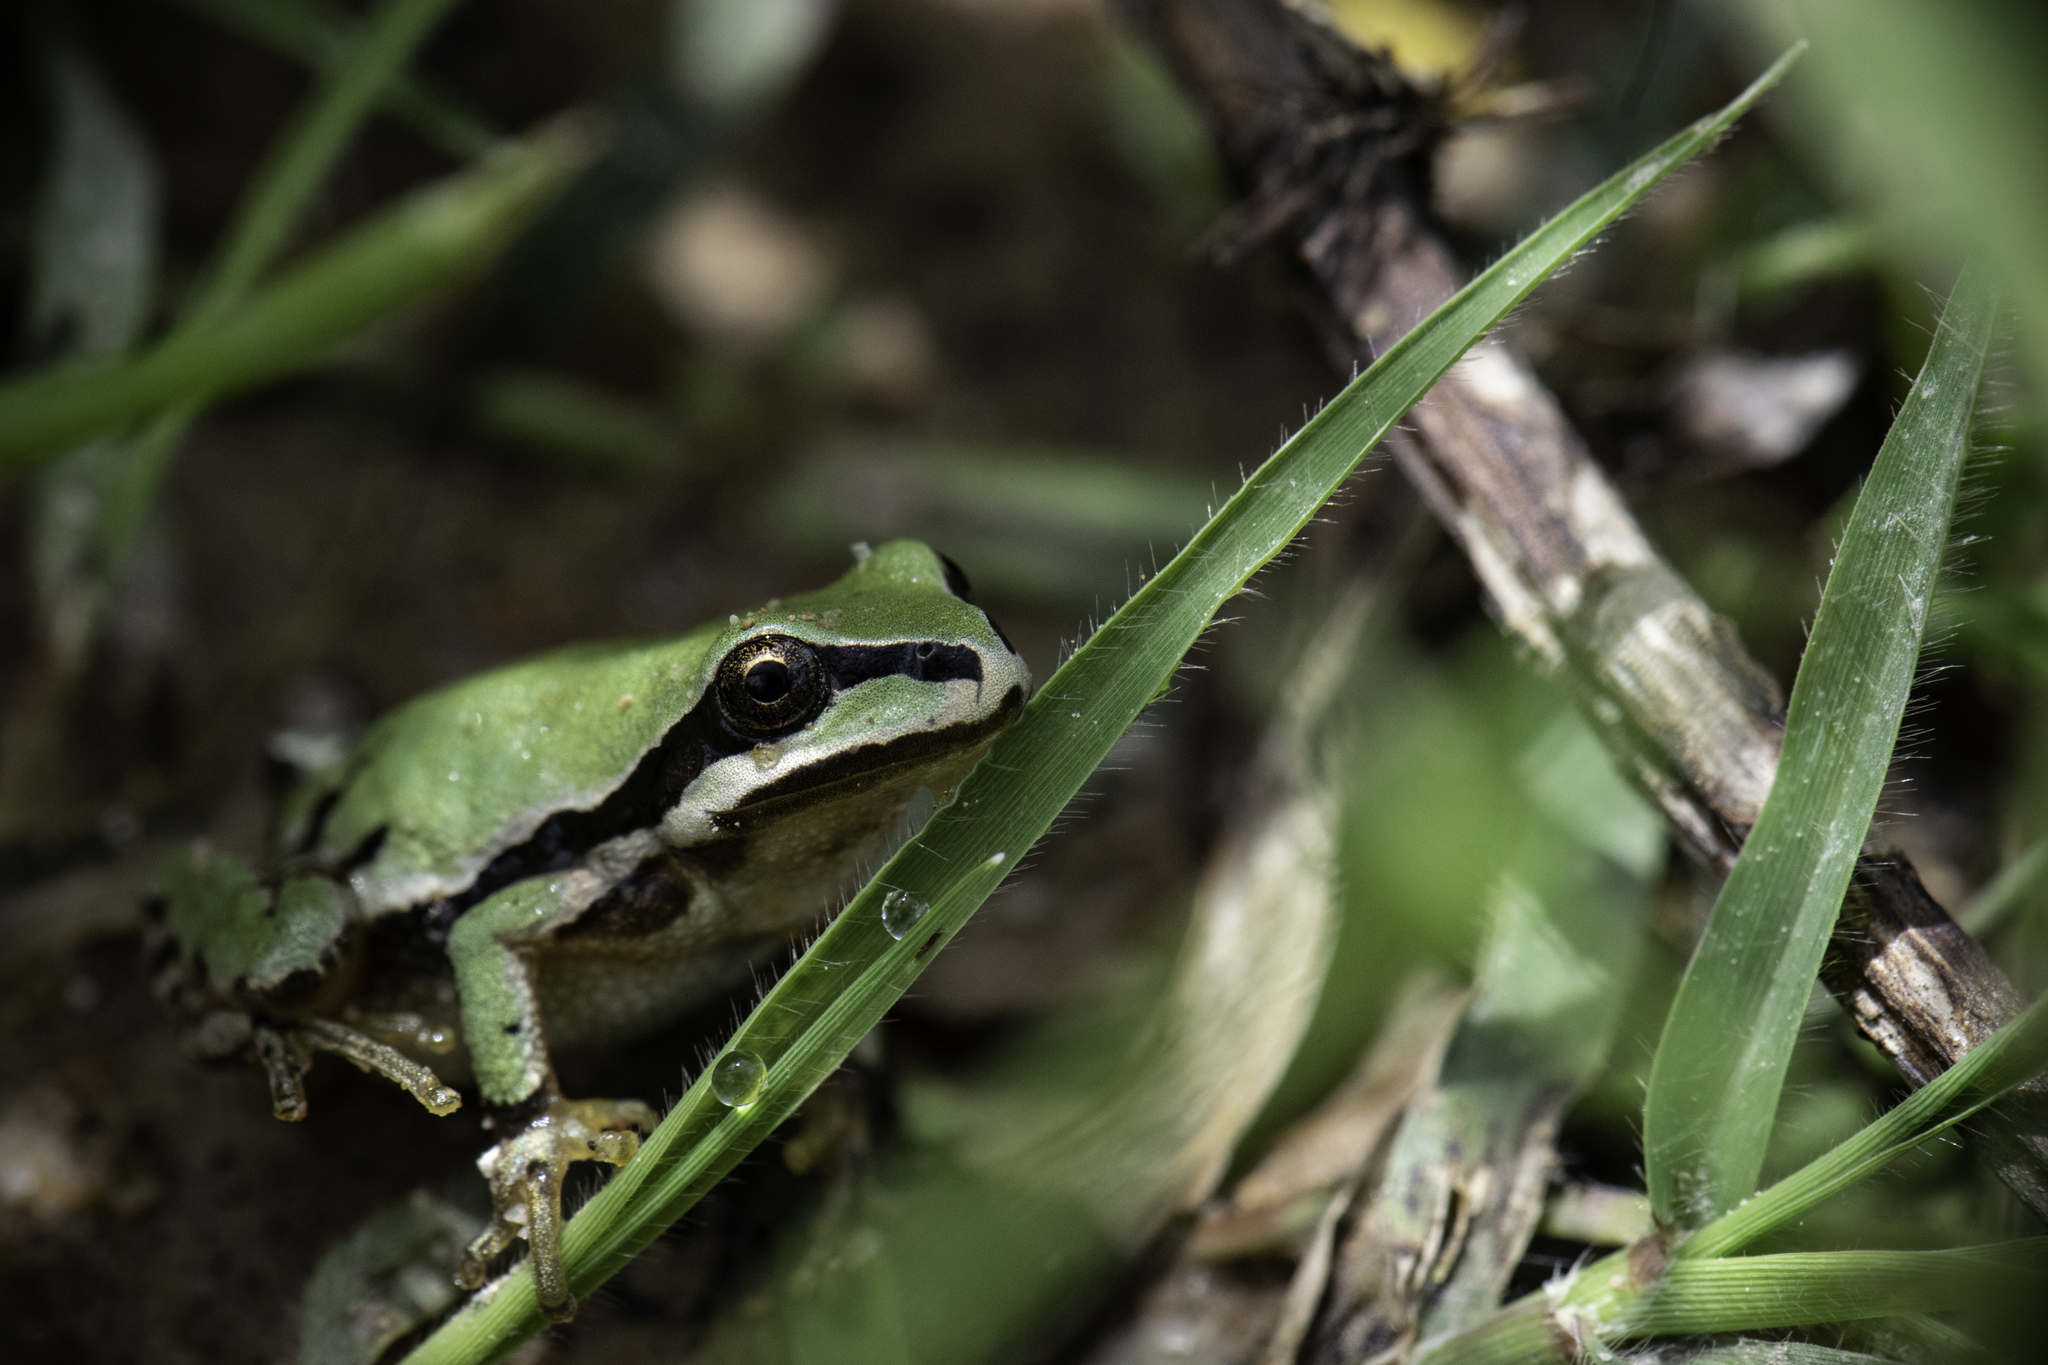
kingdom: Animalia
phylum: Chordata
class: Amphibia
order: Anura
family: Hylidae
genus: Dryophytes
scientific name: Dryophytes eximius
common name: Mountain treefrog
